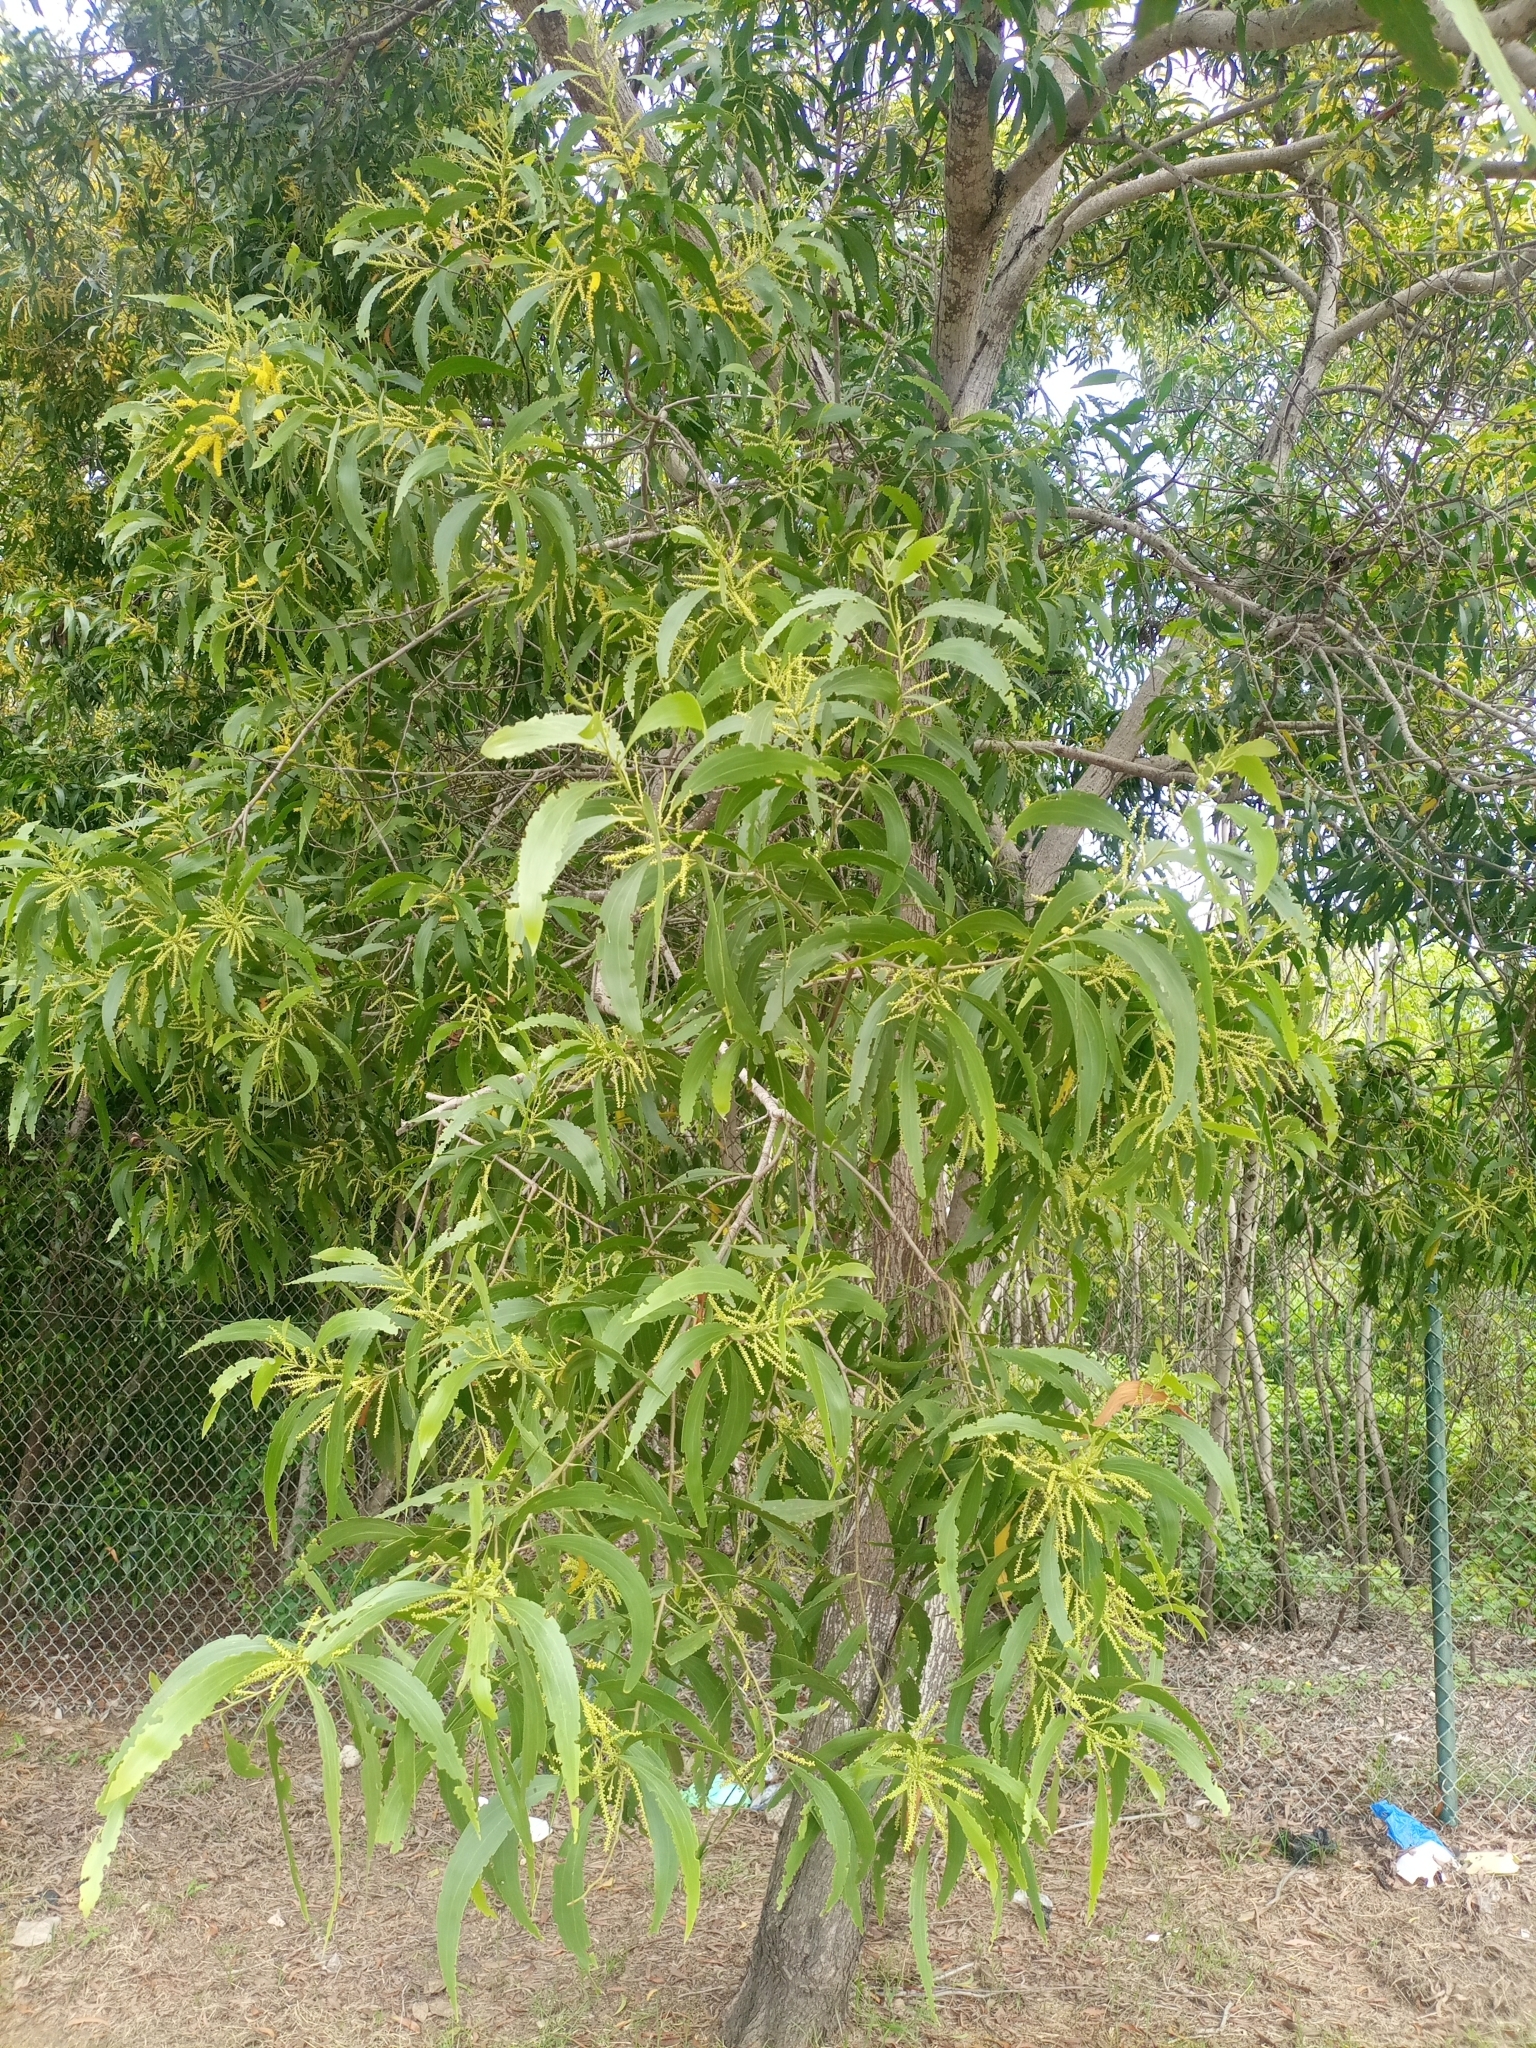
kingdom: Plantae
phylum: Tracheophyta
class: Magnoliopsida
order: Fabales
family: Fabaceae
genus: Acacia
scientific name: Acacia auriculiformis
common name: Earleaf acacia
